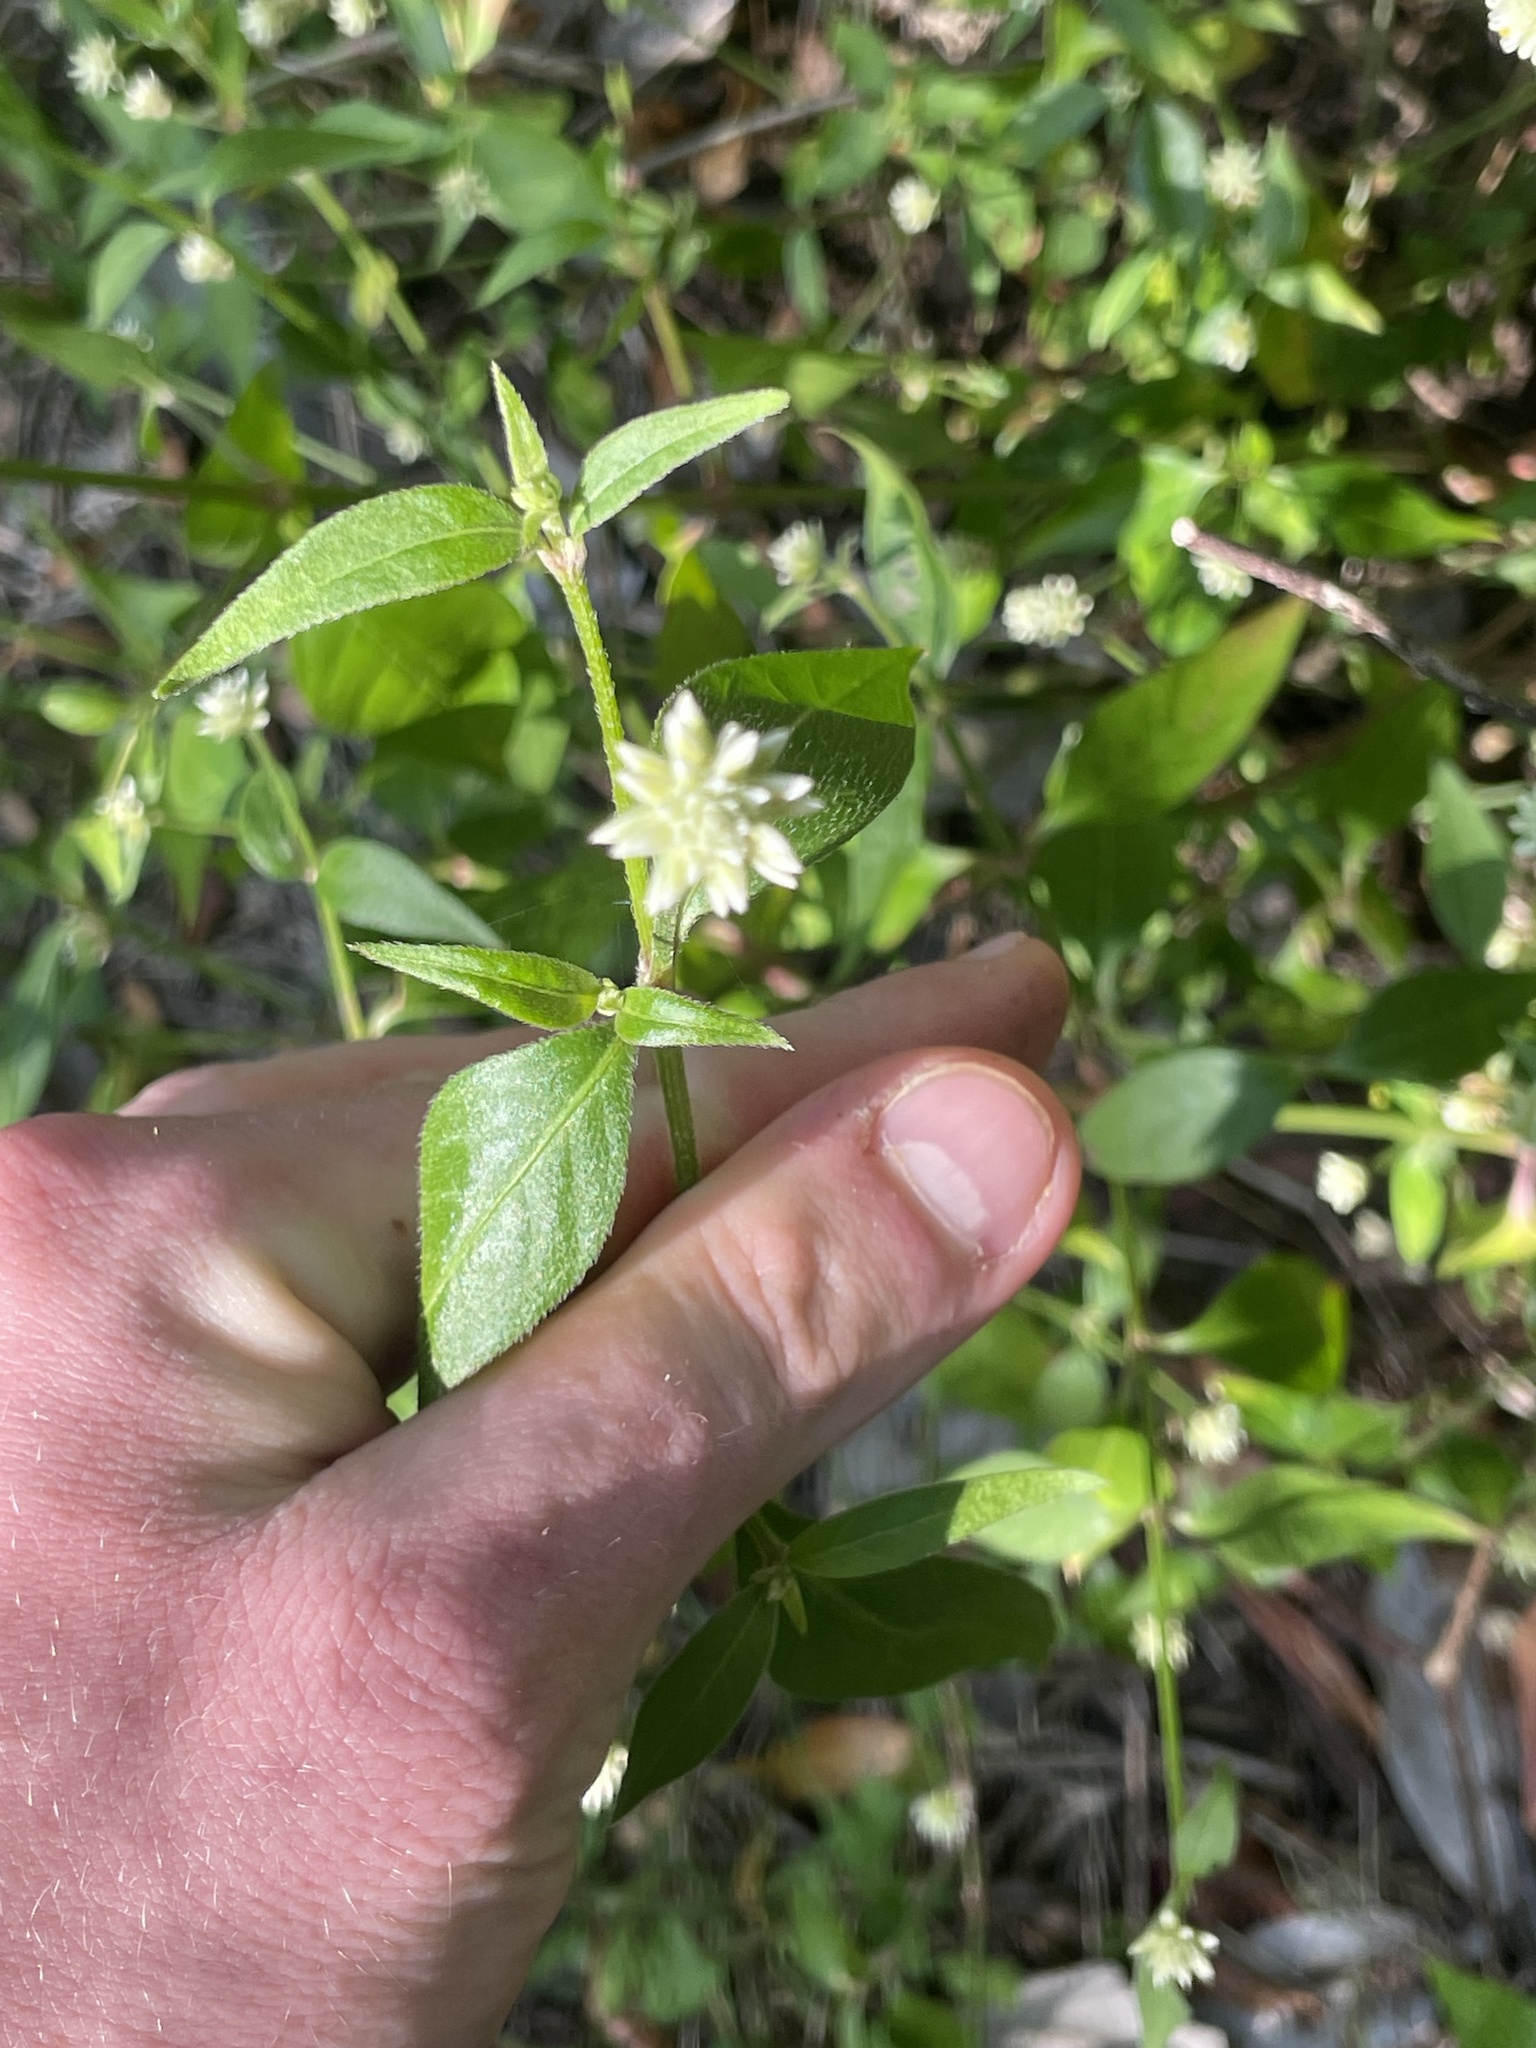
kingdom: Plantae
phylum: Tracheophyta
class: Magnoliopsida
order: Caryophyllales
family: Amaranthaceae
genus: Alternanthera
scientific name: Alternanthera flavescens
